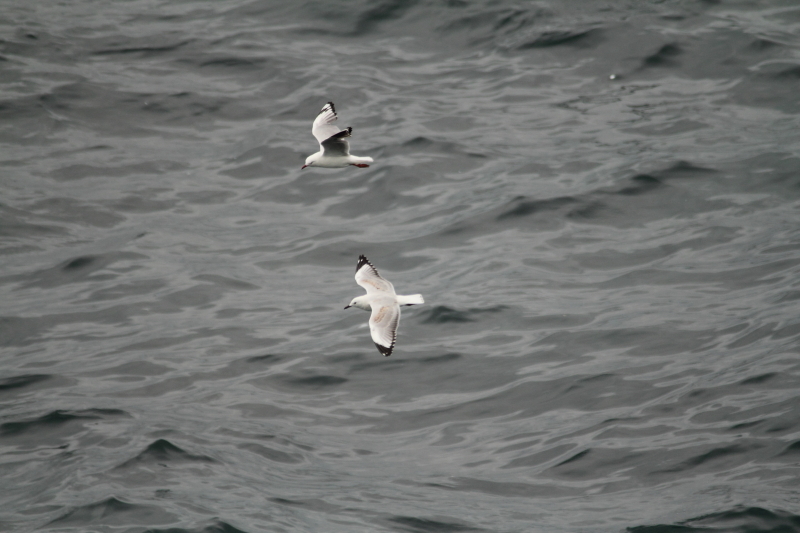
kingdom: Animalia
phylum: Chordata
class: Aves
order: Charadriiformes
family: Laridae
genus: Chroicocephalus
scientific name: Chroicocephalus novaehollandiae
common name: Silver gull
